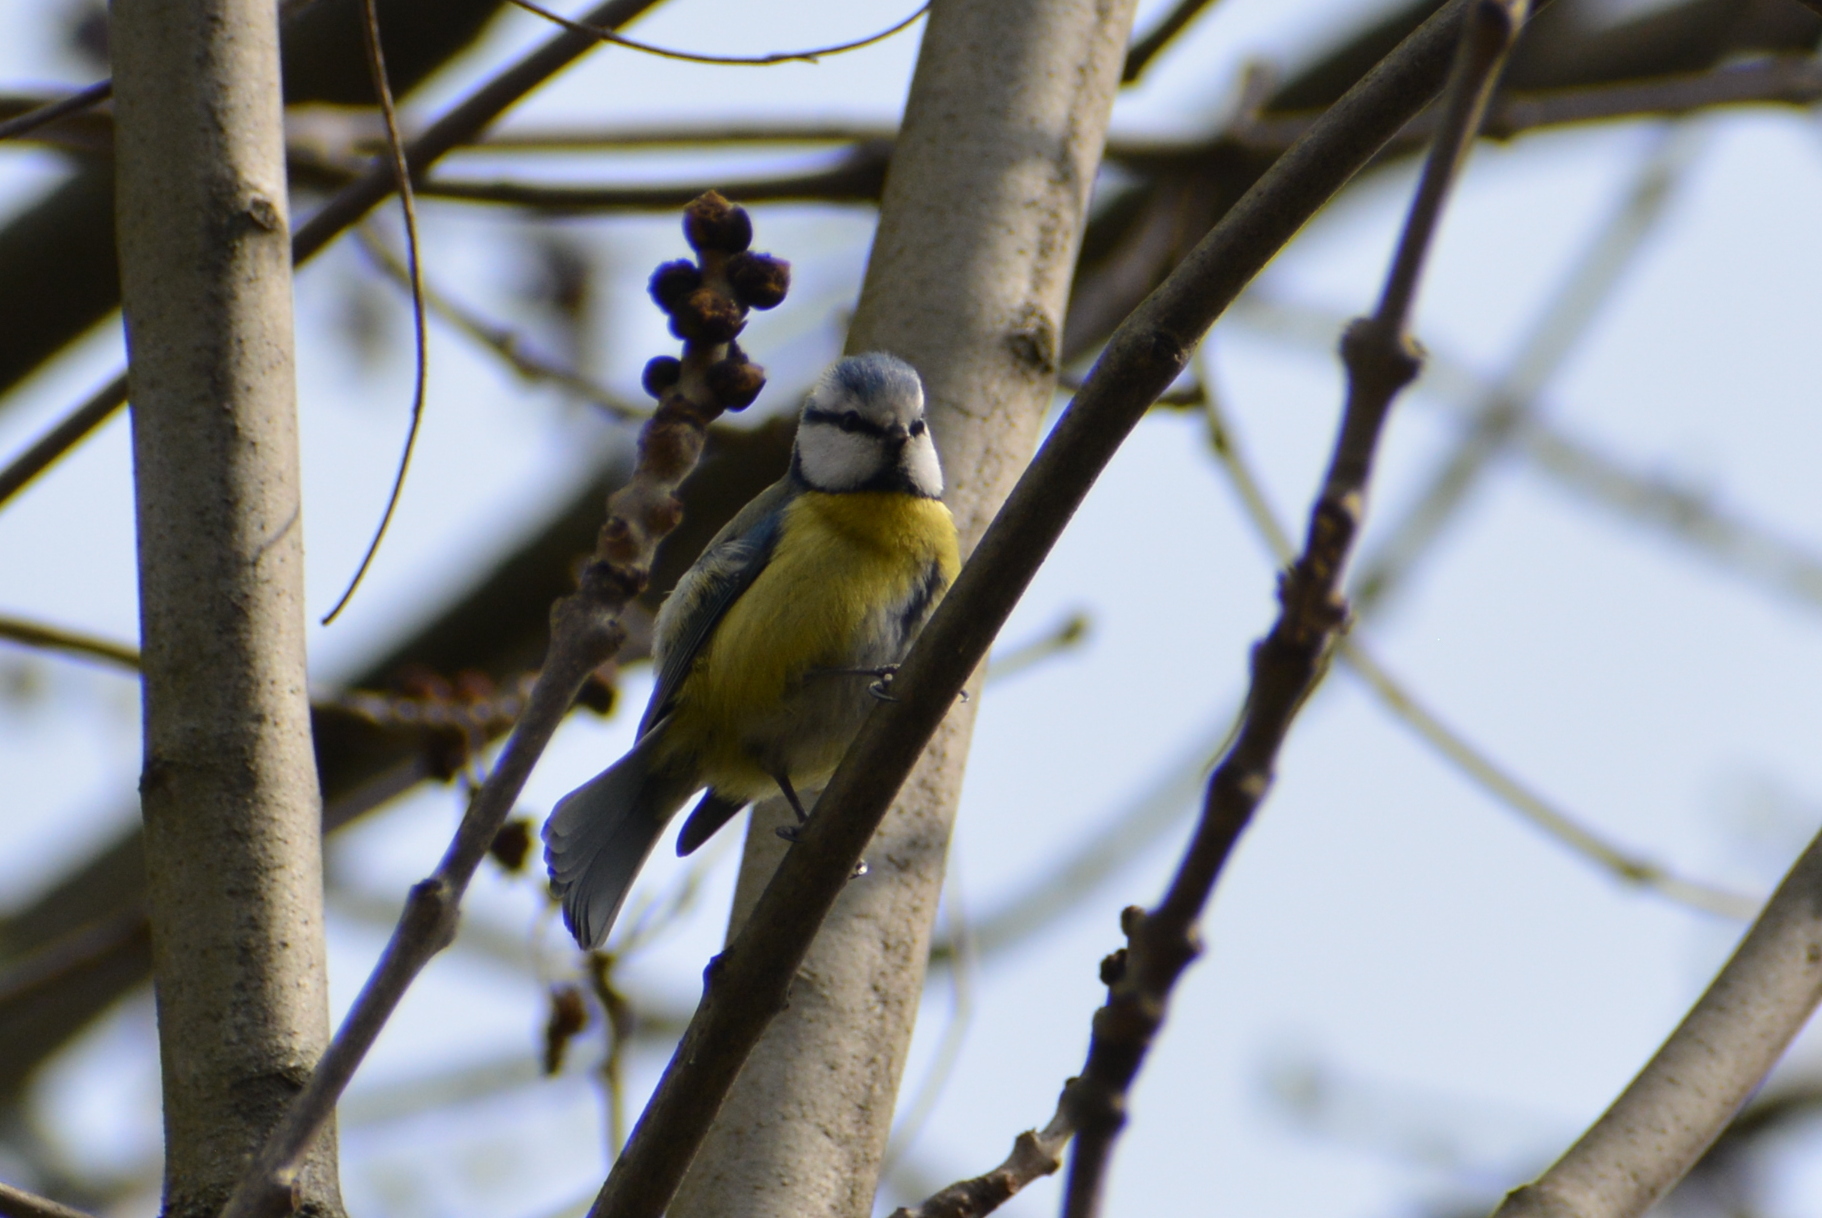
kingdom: Animalia
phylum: Chordata
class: Aves
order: Passeriformes
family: Paridae
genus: Cyanistes
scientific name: Cyanistes caeruleus
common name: Eurasian blue tit
